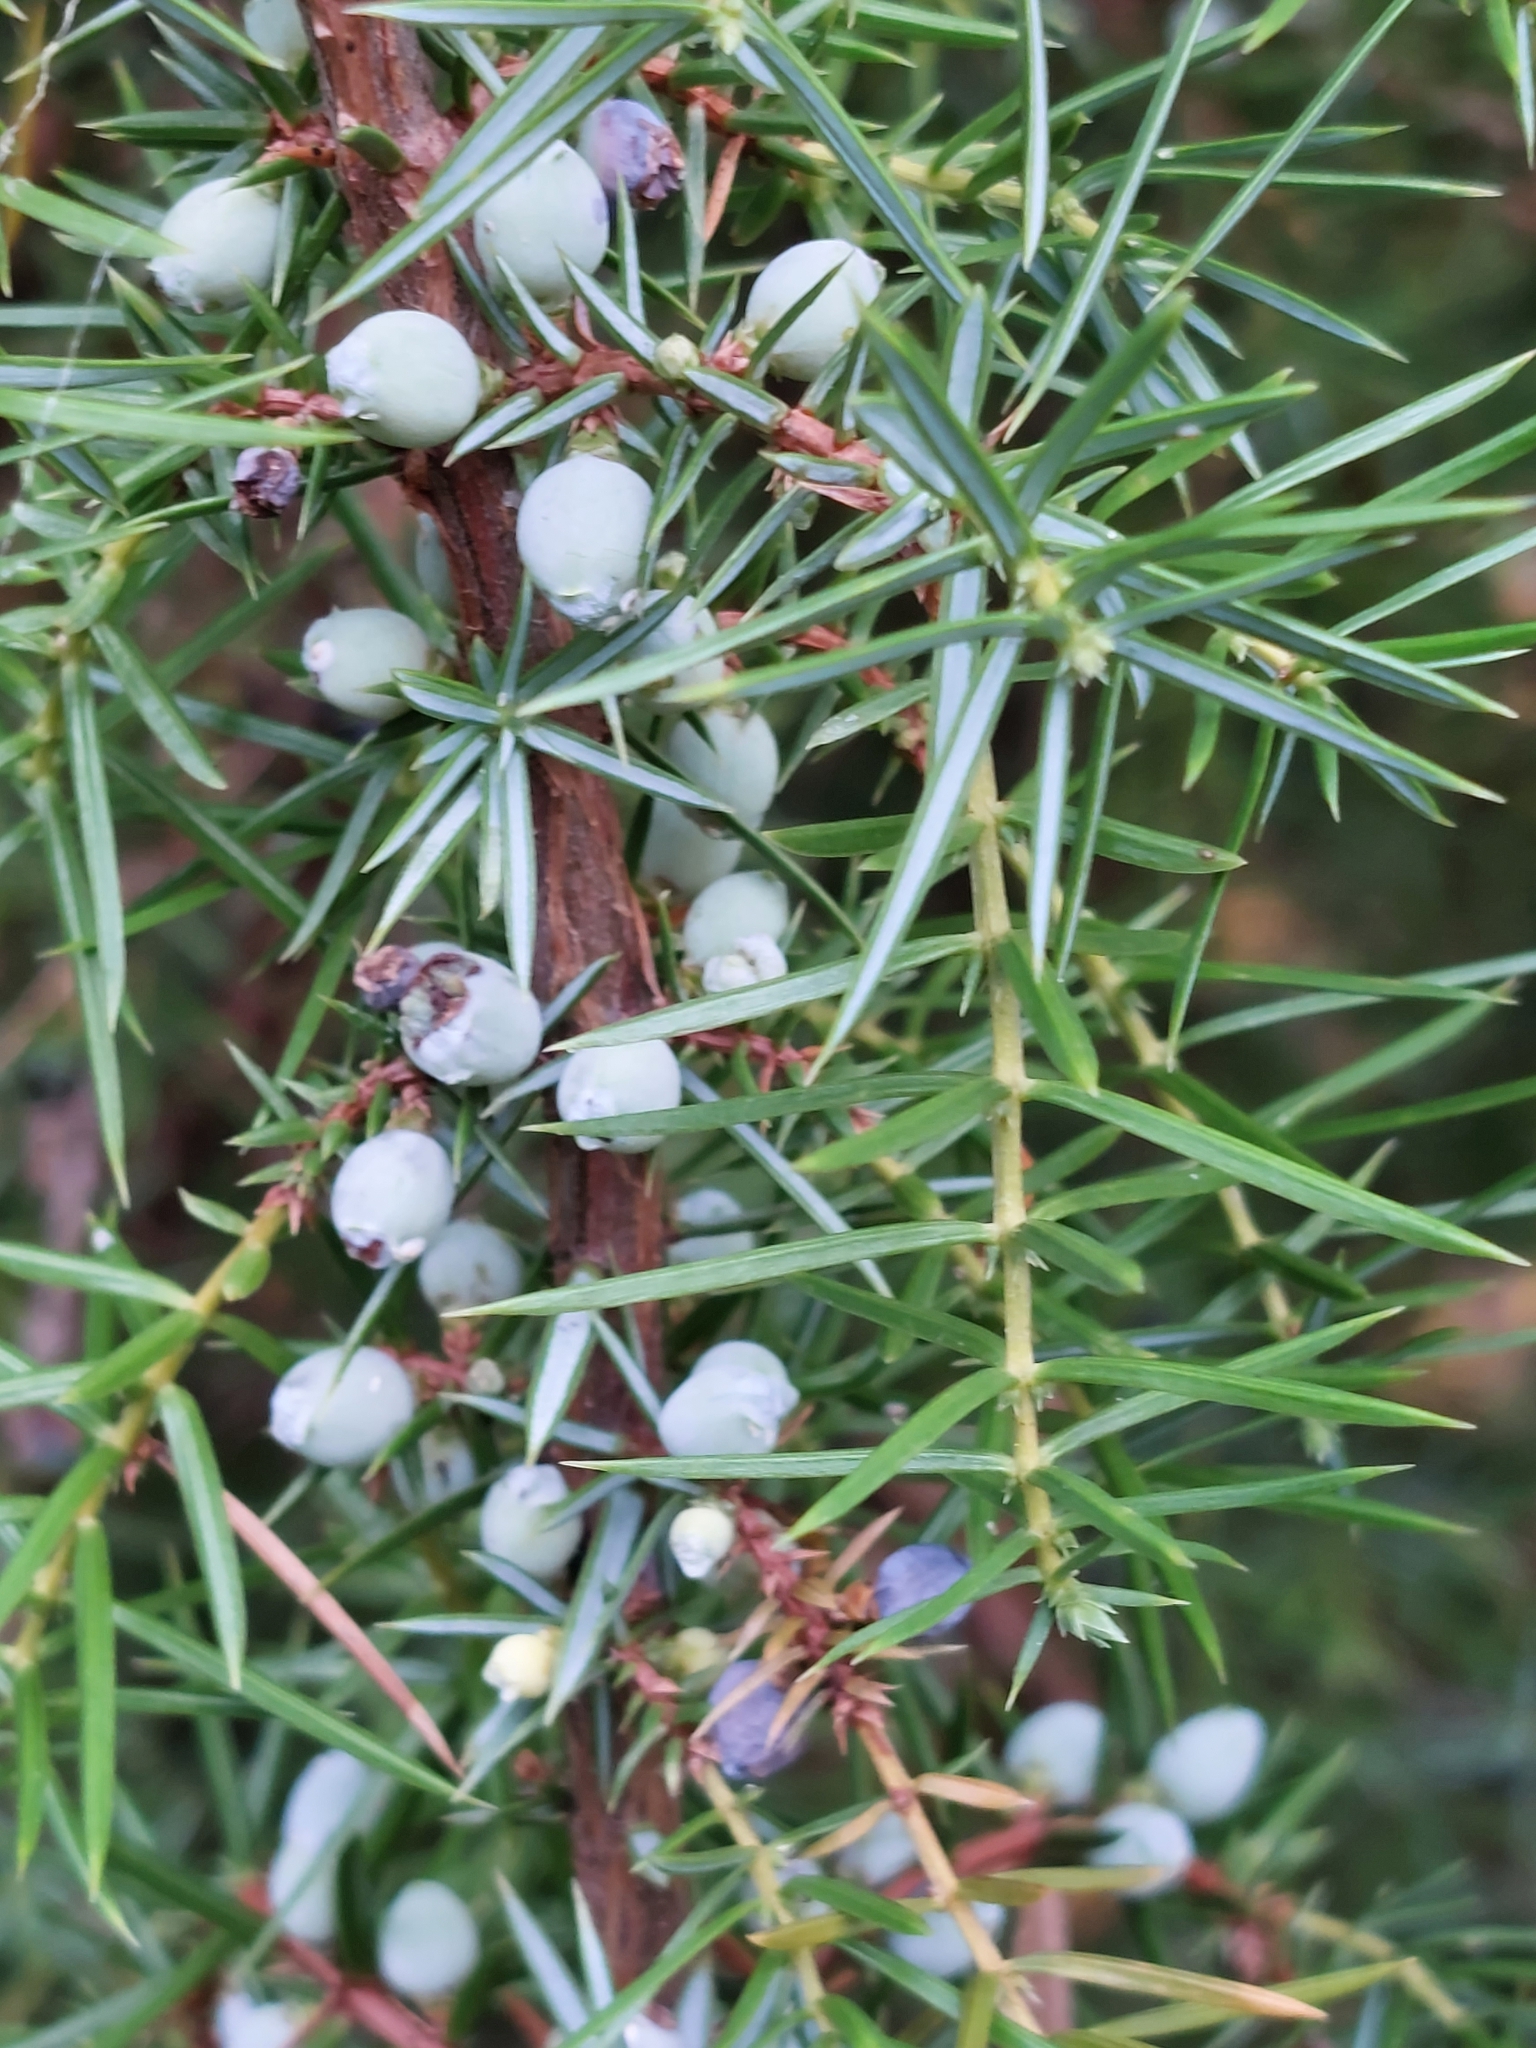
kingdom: Plantae
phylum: Tracheophyta
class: Pinopsida
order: Pinales
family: Cupressaceae
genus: Juniperus
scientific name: Juniperus communis
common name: Common juniper
